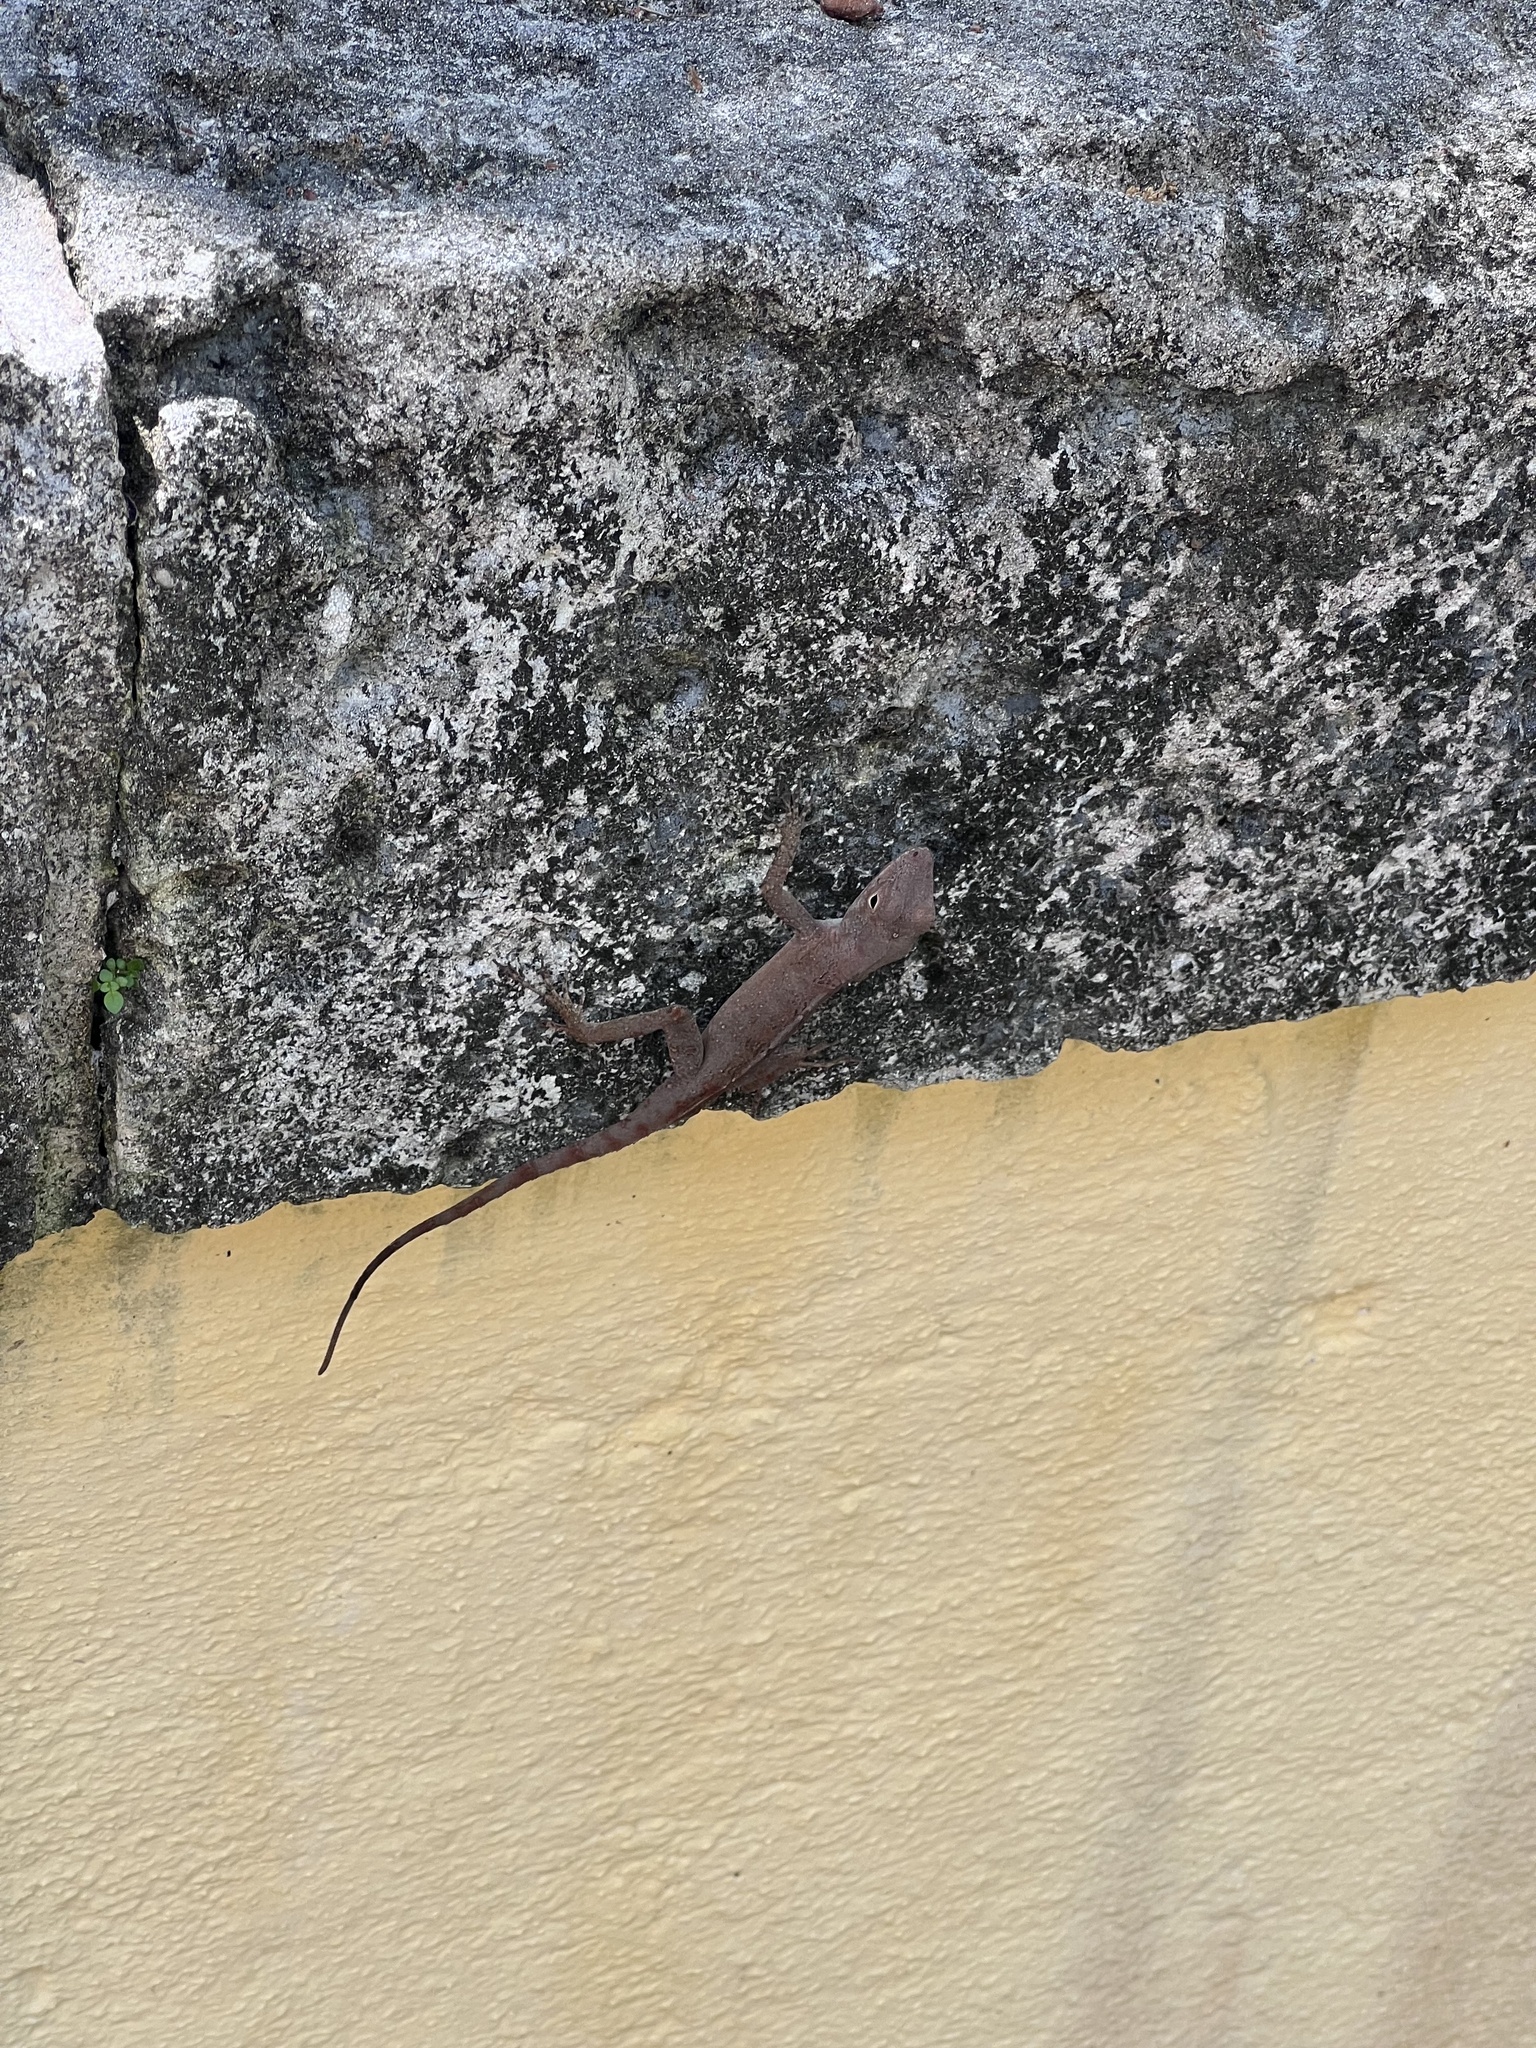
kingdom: Animalia
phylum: Chordata
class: Squamata
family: Dactyloidae
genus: Anolis
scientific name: Anolis cristatellus
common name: Crested anole
